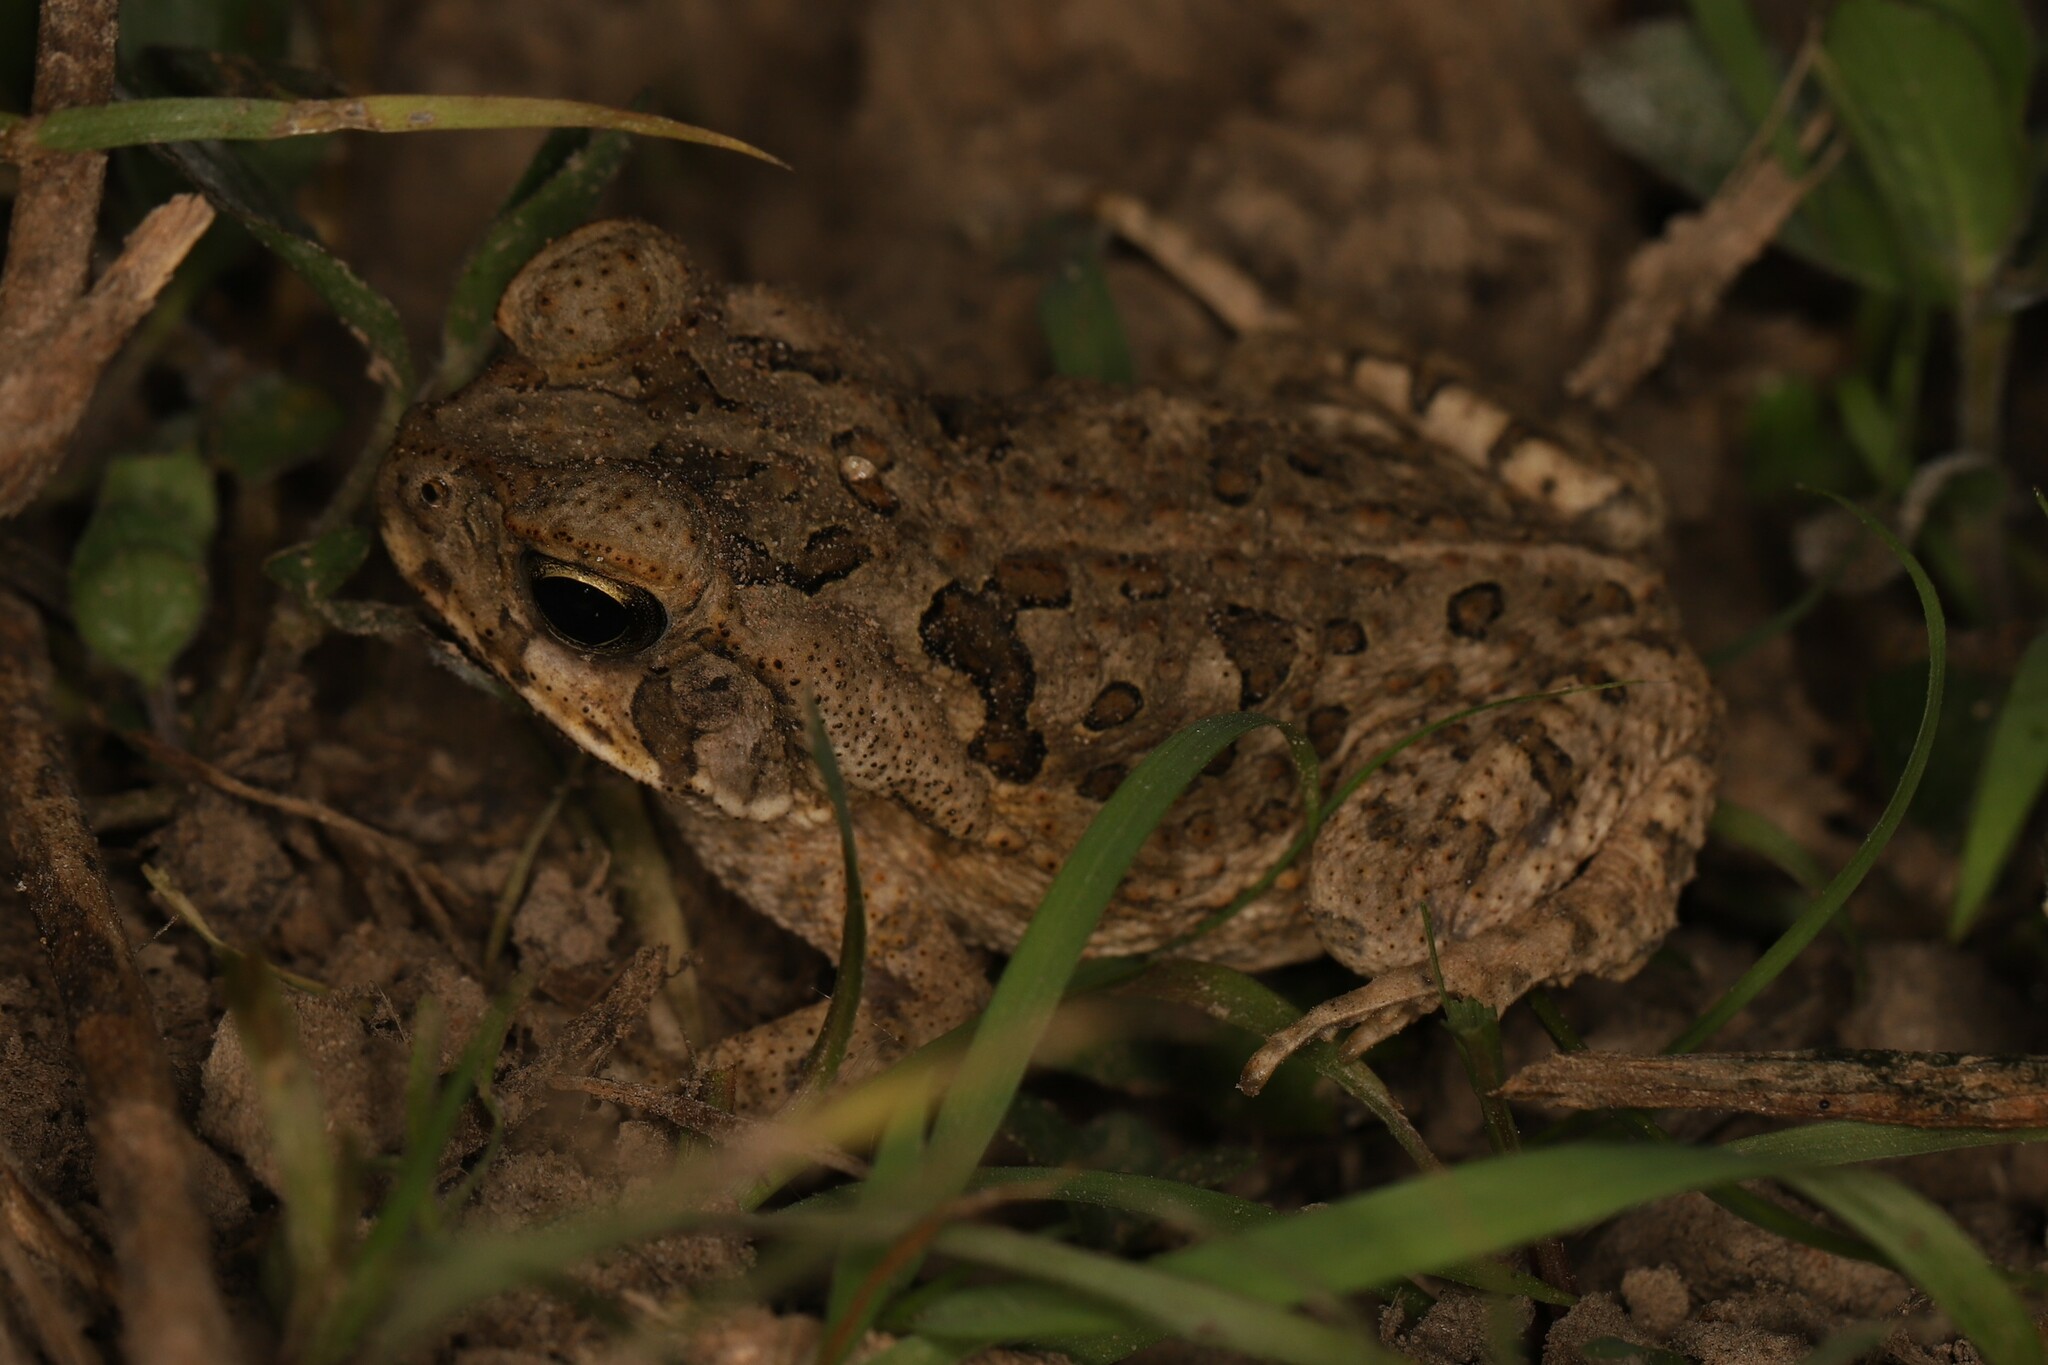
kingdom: Animalia
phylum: Chordata
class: Amphibia
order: Anura
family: Bufonidae
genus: Rhinella
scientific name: Rhinella diptycha
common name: Cope's toad
